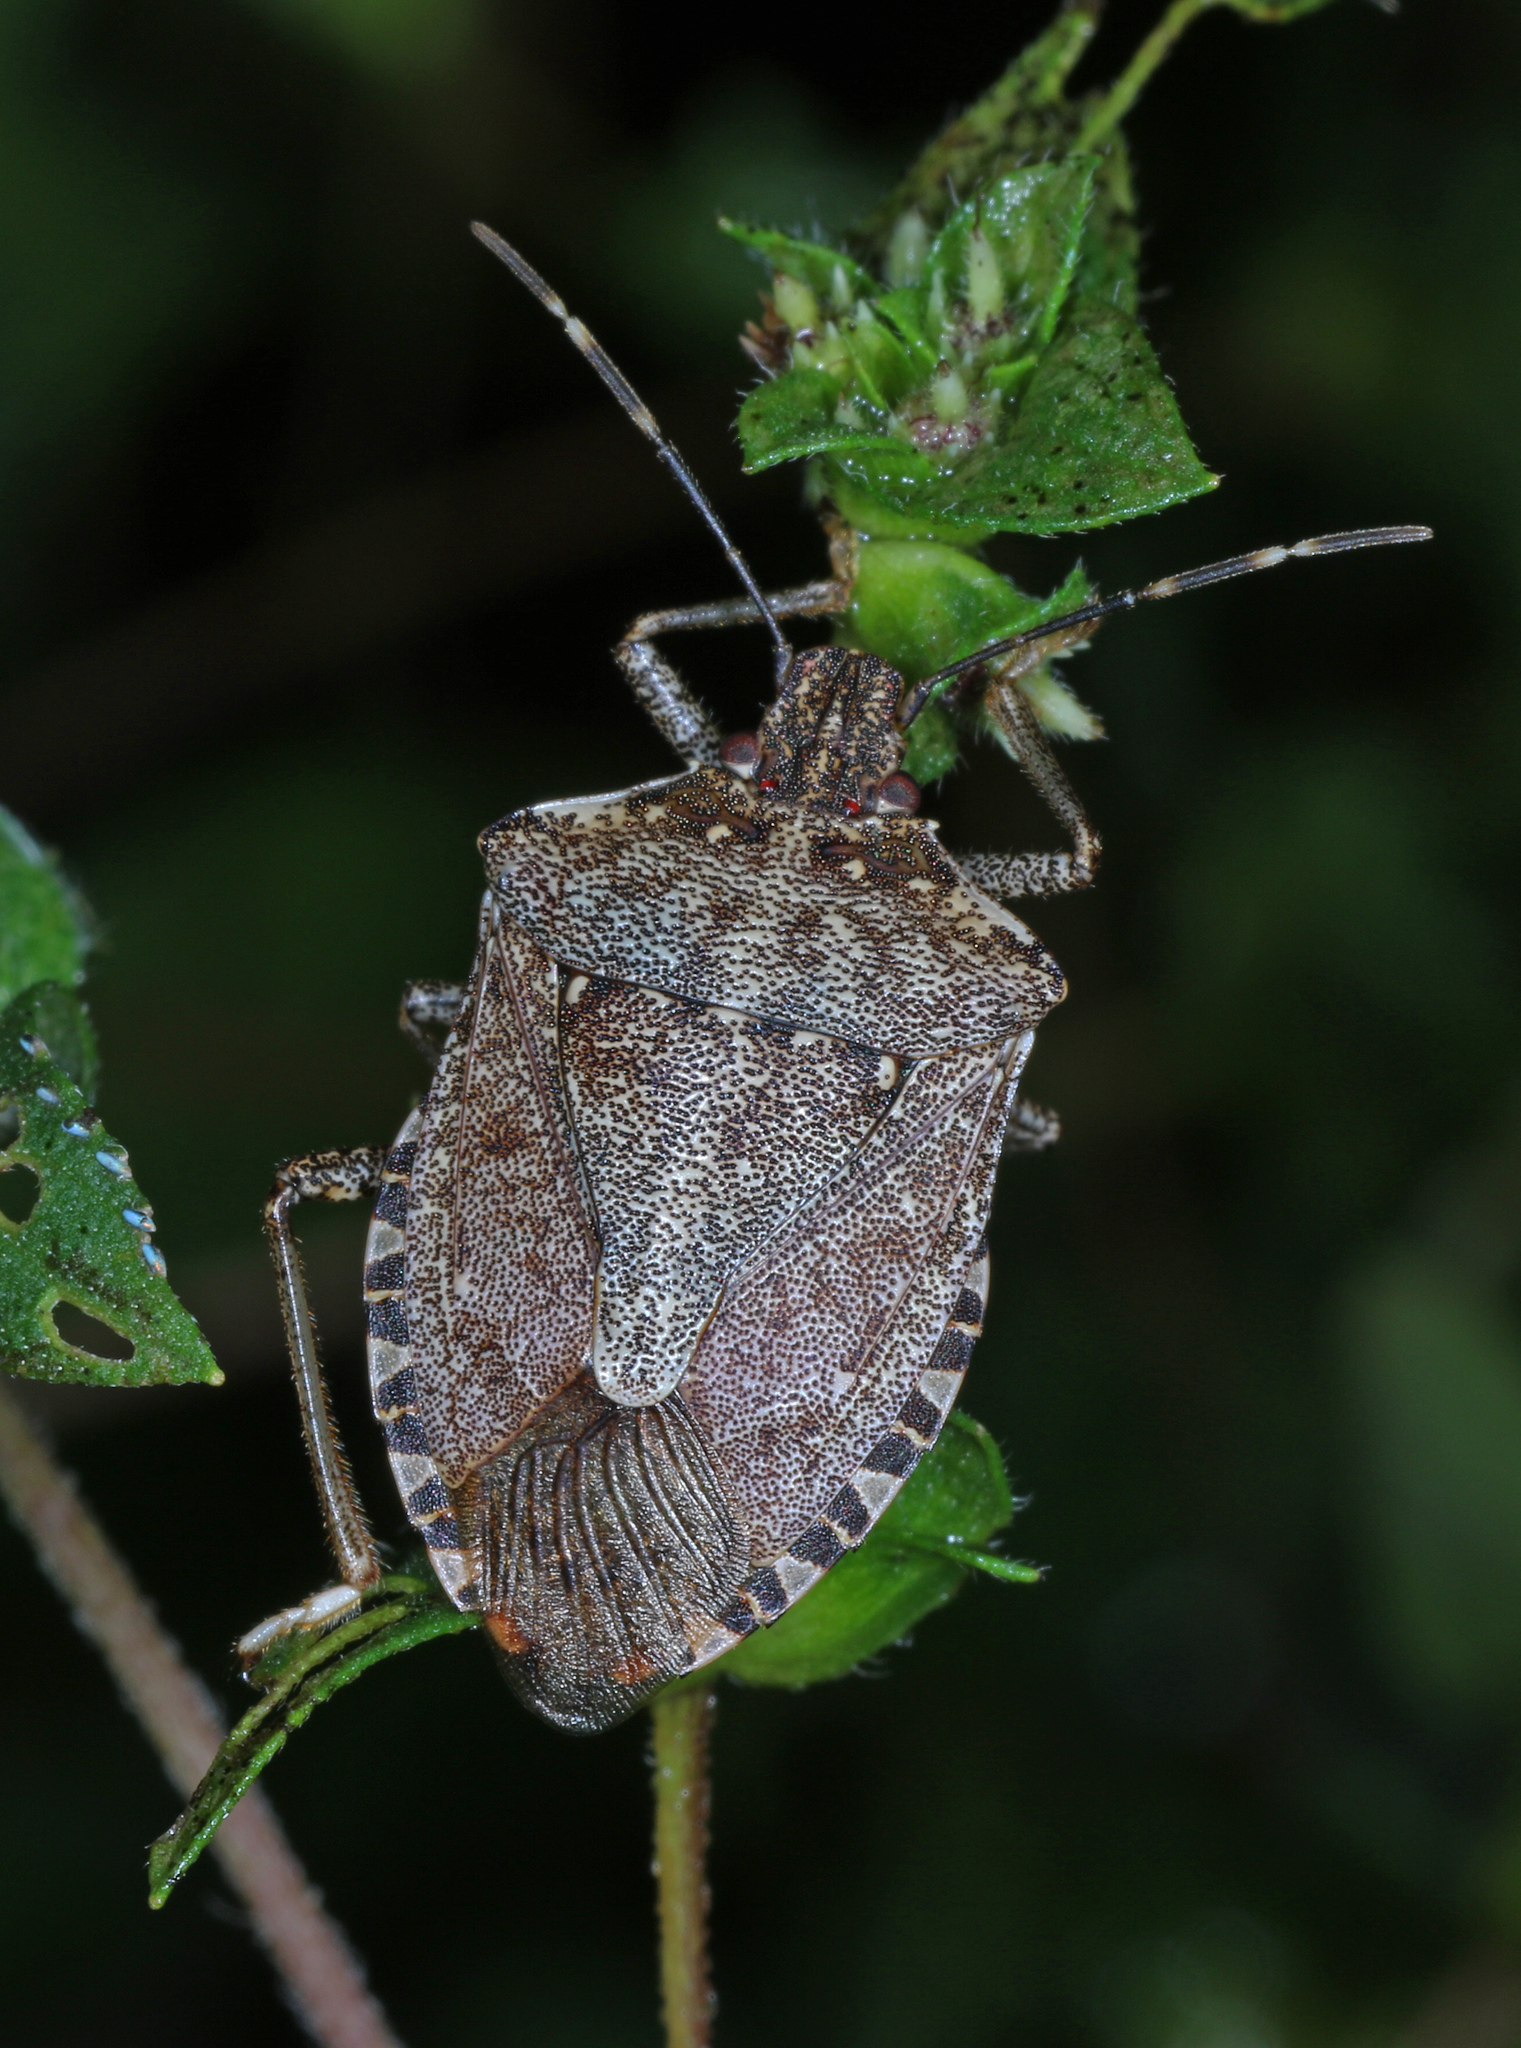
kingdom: Animalia
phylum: Arthropoda
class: Insecta
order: Hemiptera
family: Pentatomidae
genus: Halyomorpha
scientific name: Halyomorpha halys
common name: Brown marmorated stink bug
